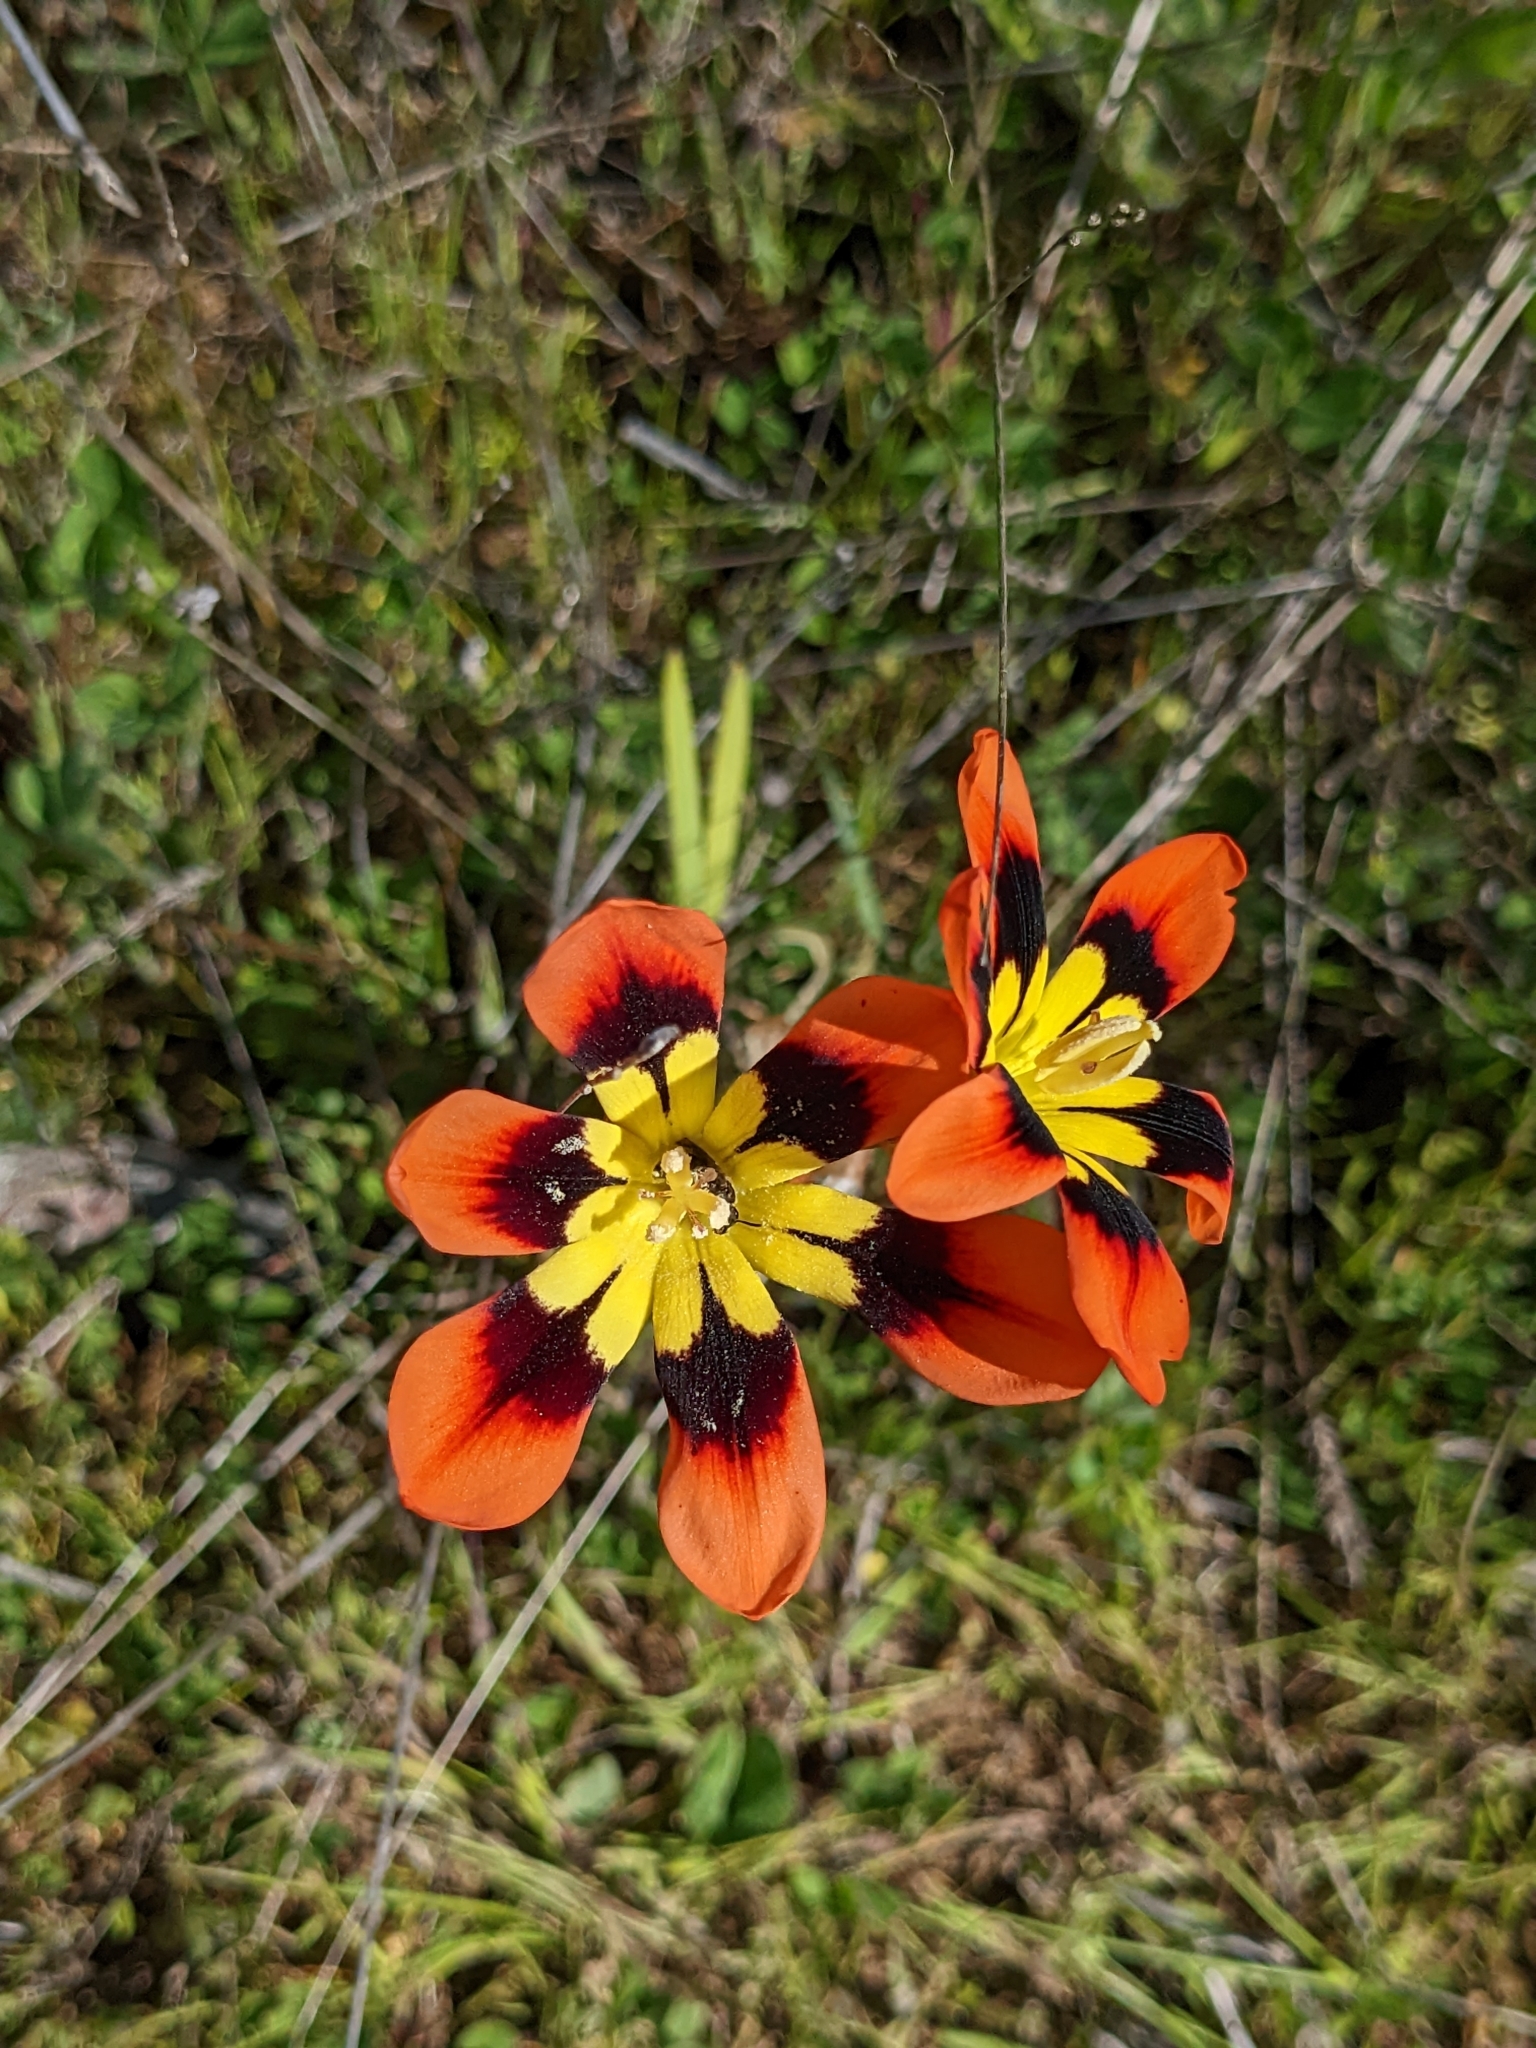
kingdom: Plantae
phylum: Tracheophyta
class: Liliopsida
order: Asparagales
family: Iridaceae
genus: Sparaxis
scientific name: Sparaxis tricolor
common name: Wandflower
